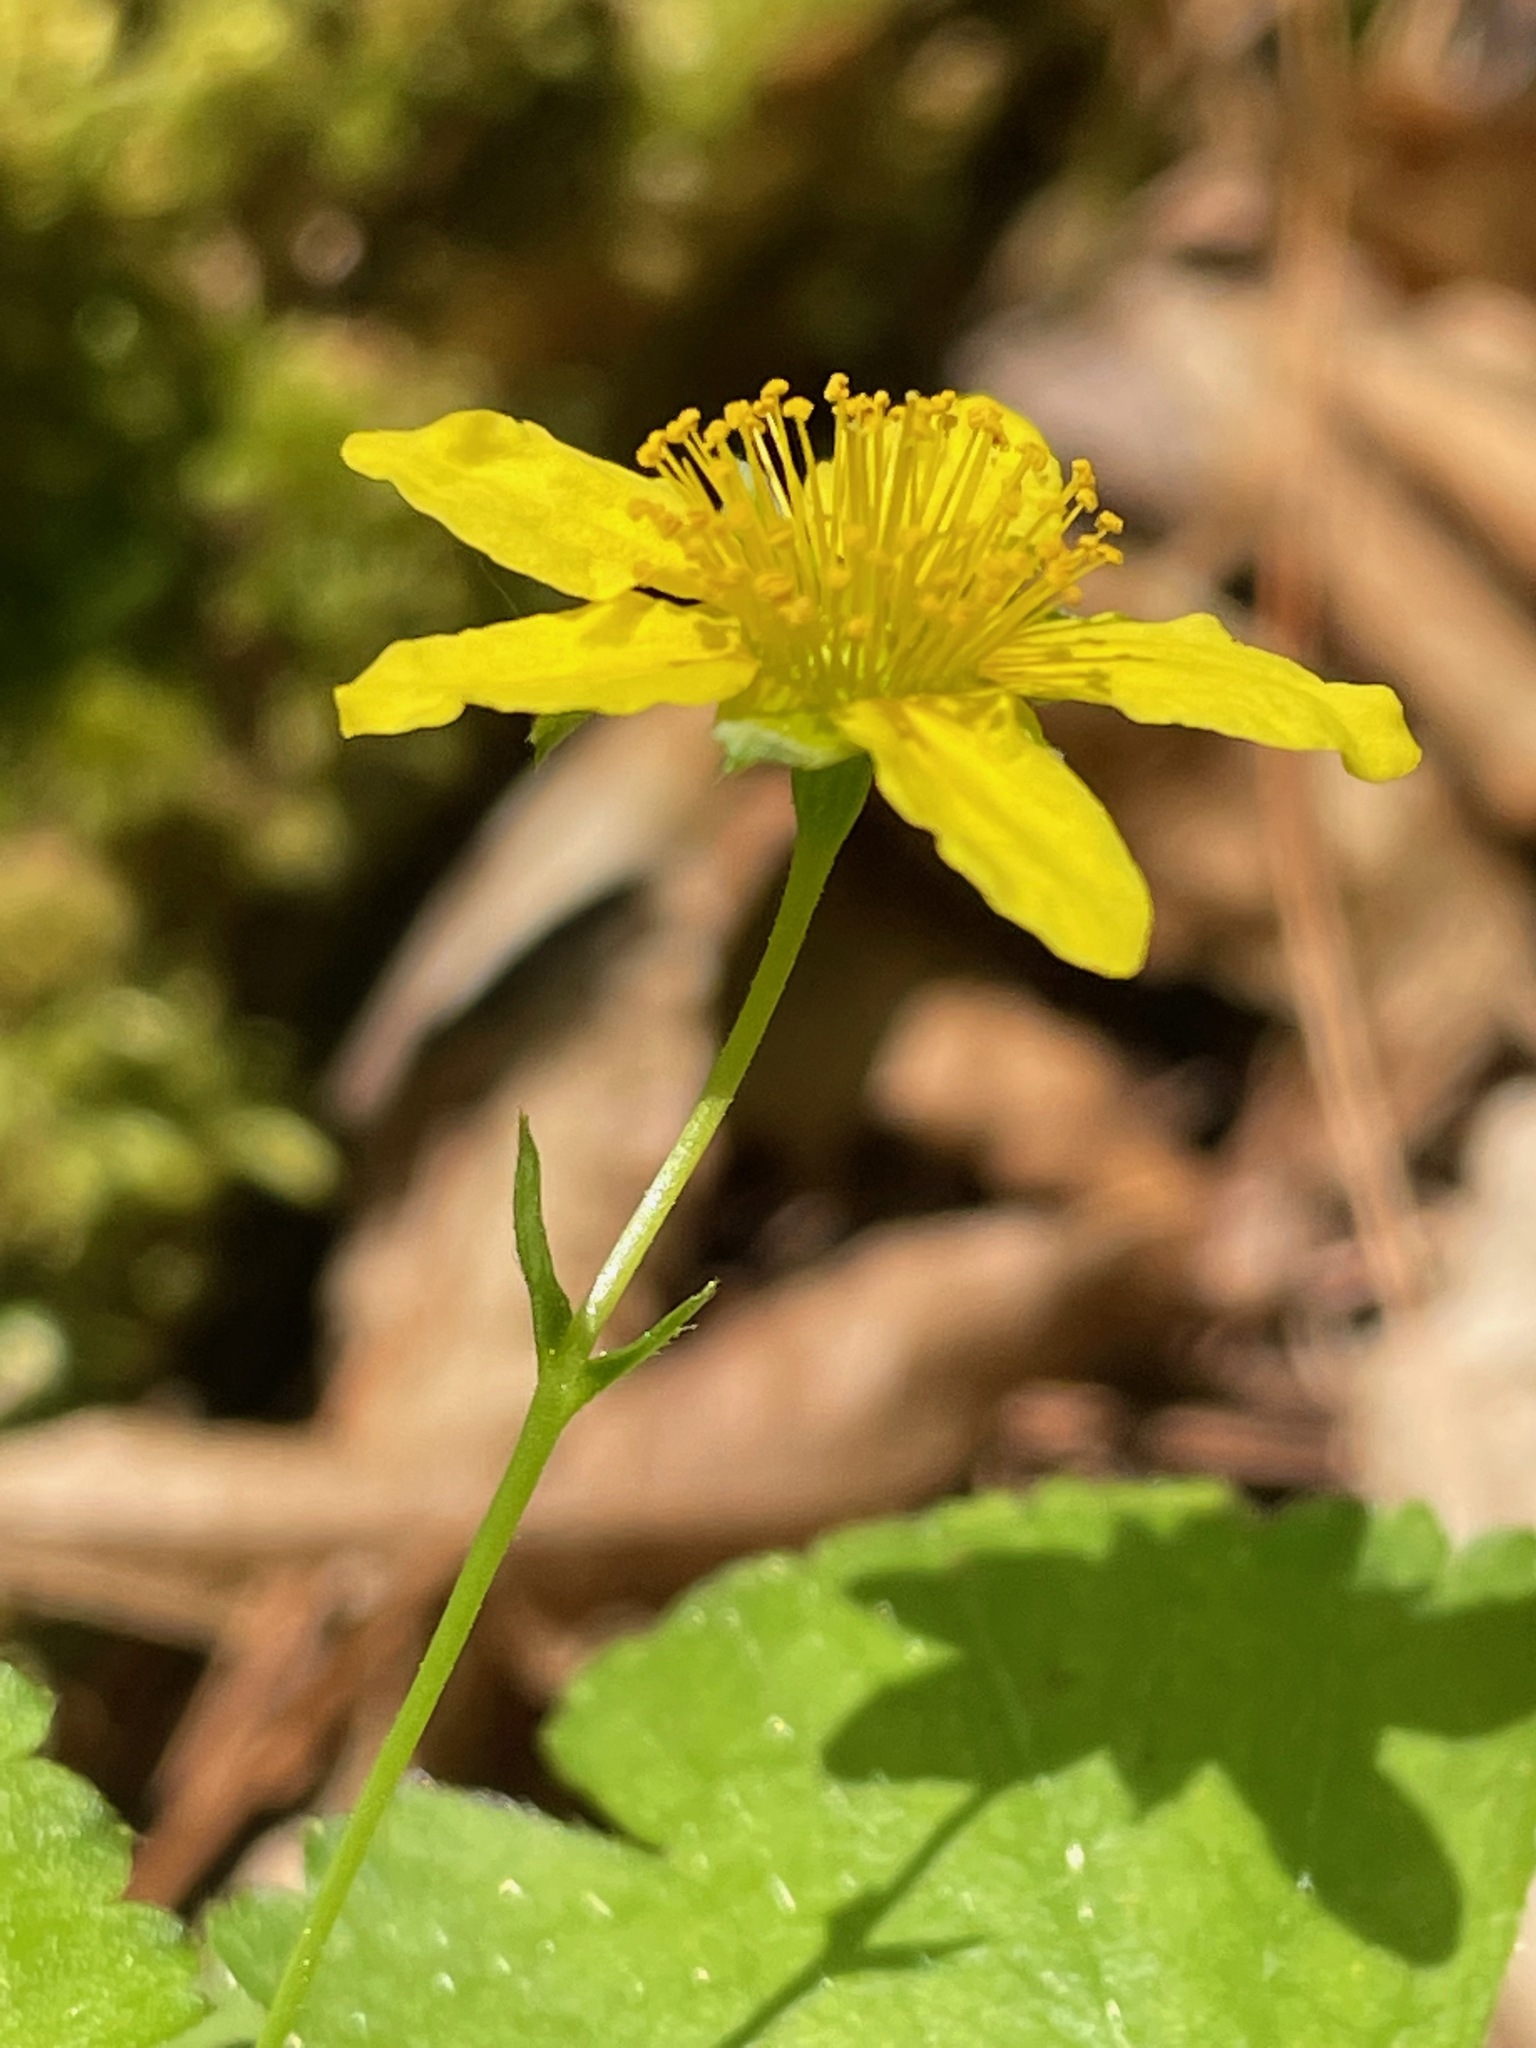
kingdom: Plantae
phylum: Tracheophyta
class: Magnoliopsida
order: Rosales
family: Rosaceae
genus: Geum
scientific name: Geum fragarioides
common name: Appalachian barren strawberry
